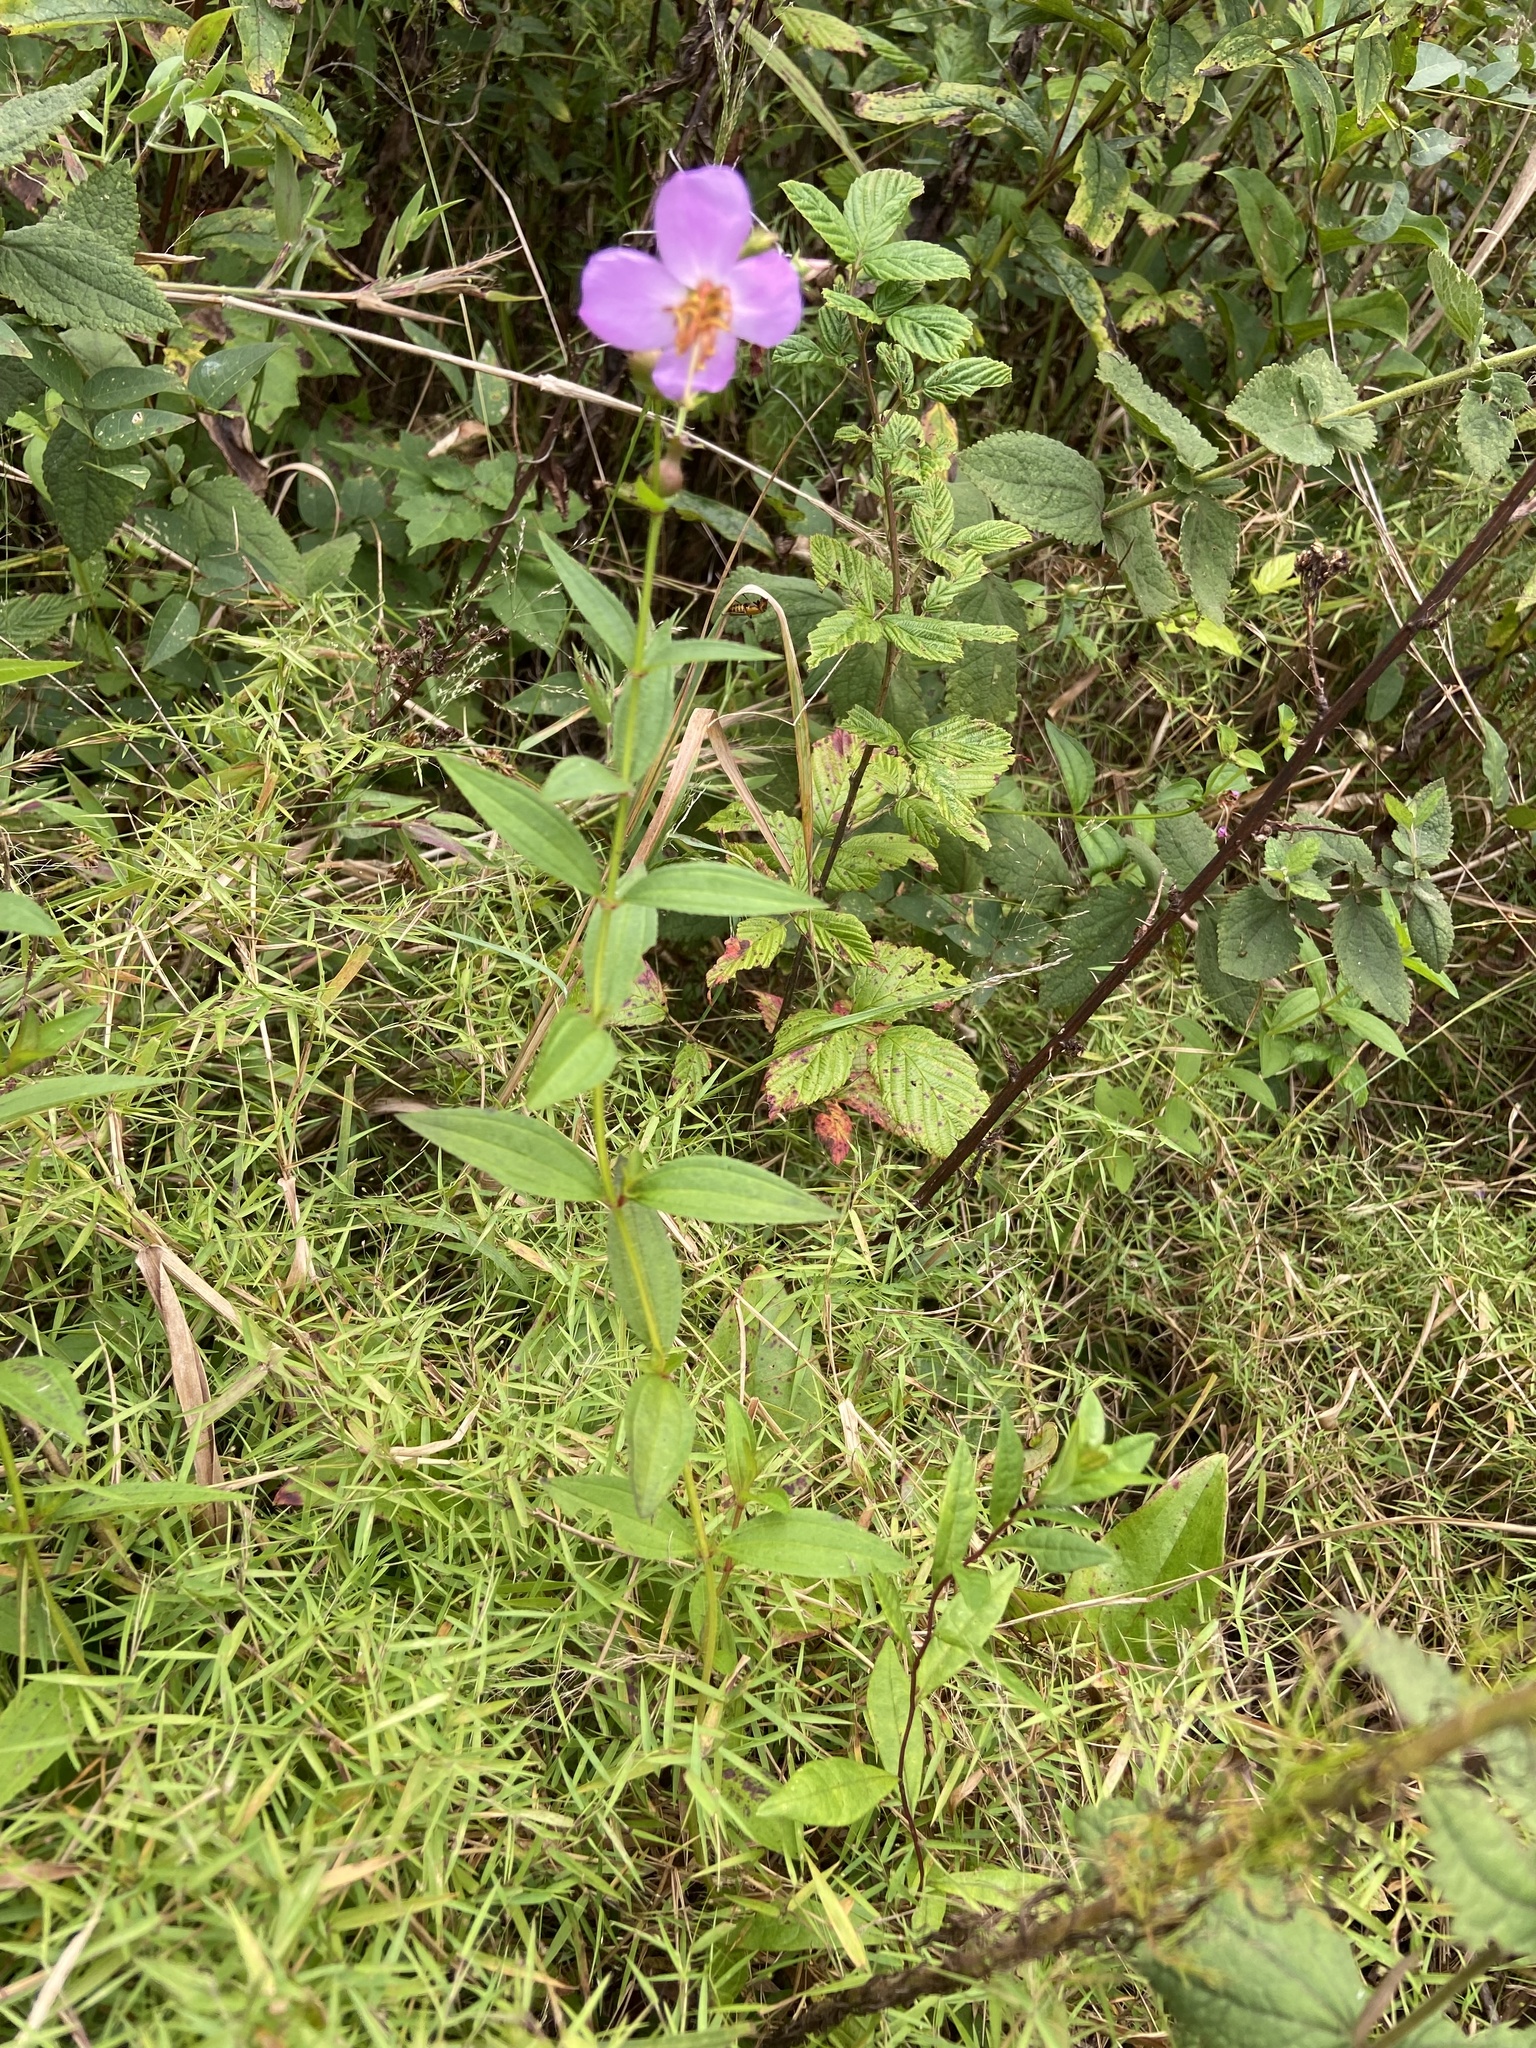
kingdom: Plantae
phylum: Tracheophyta
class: Magnoliopsida
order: Myrtales
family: Melastomataceae
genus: Rhexia
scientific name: Rhexia virginica
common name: Common meadow beauty
